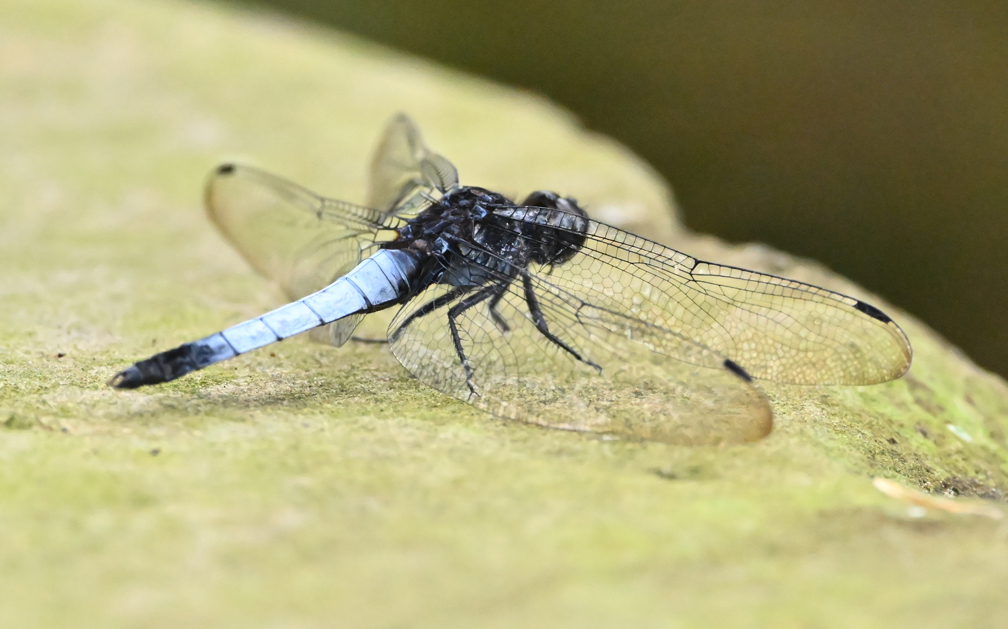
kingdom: Animalia
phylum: Arthropoda
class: Insecta
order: Odonata
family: Libellulidae
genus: Orthetrum
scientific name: Orthetrum triangulare
